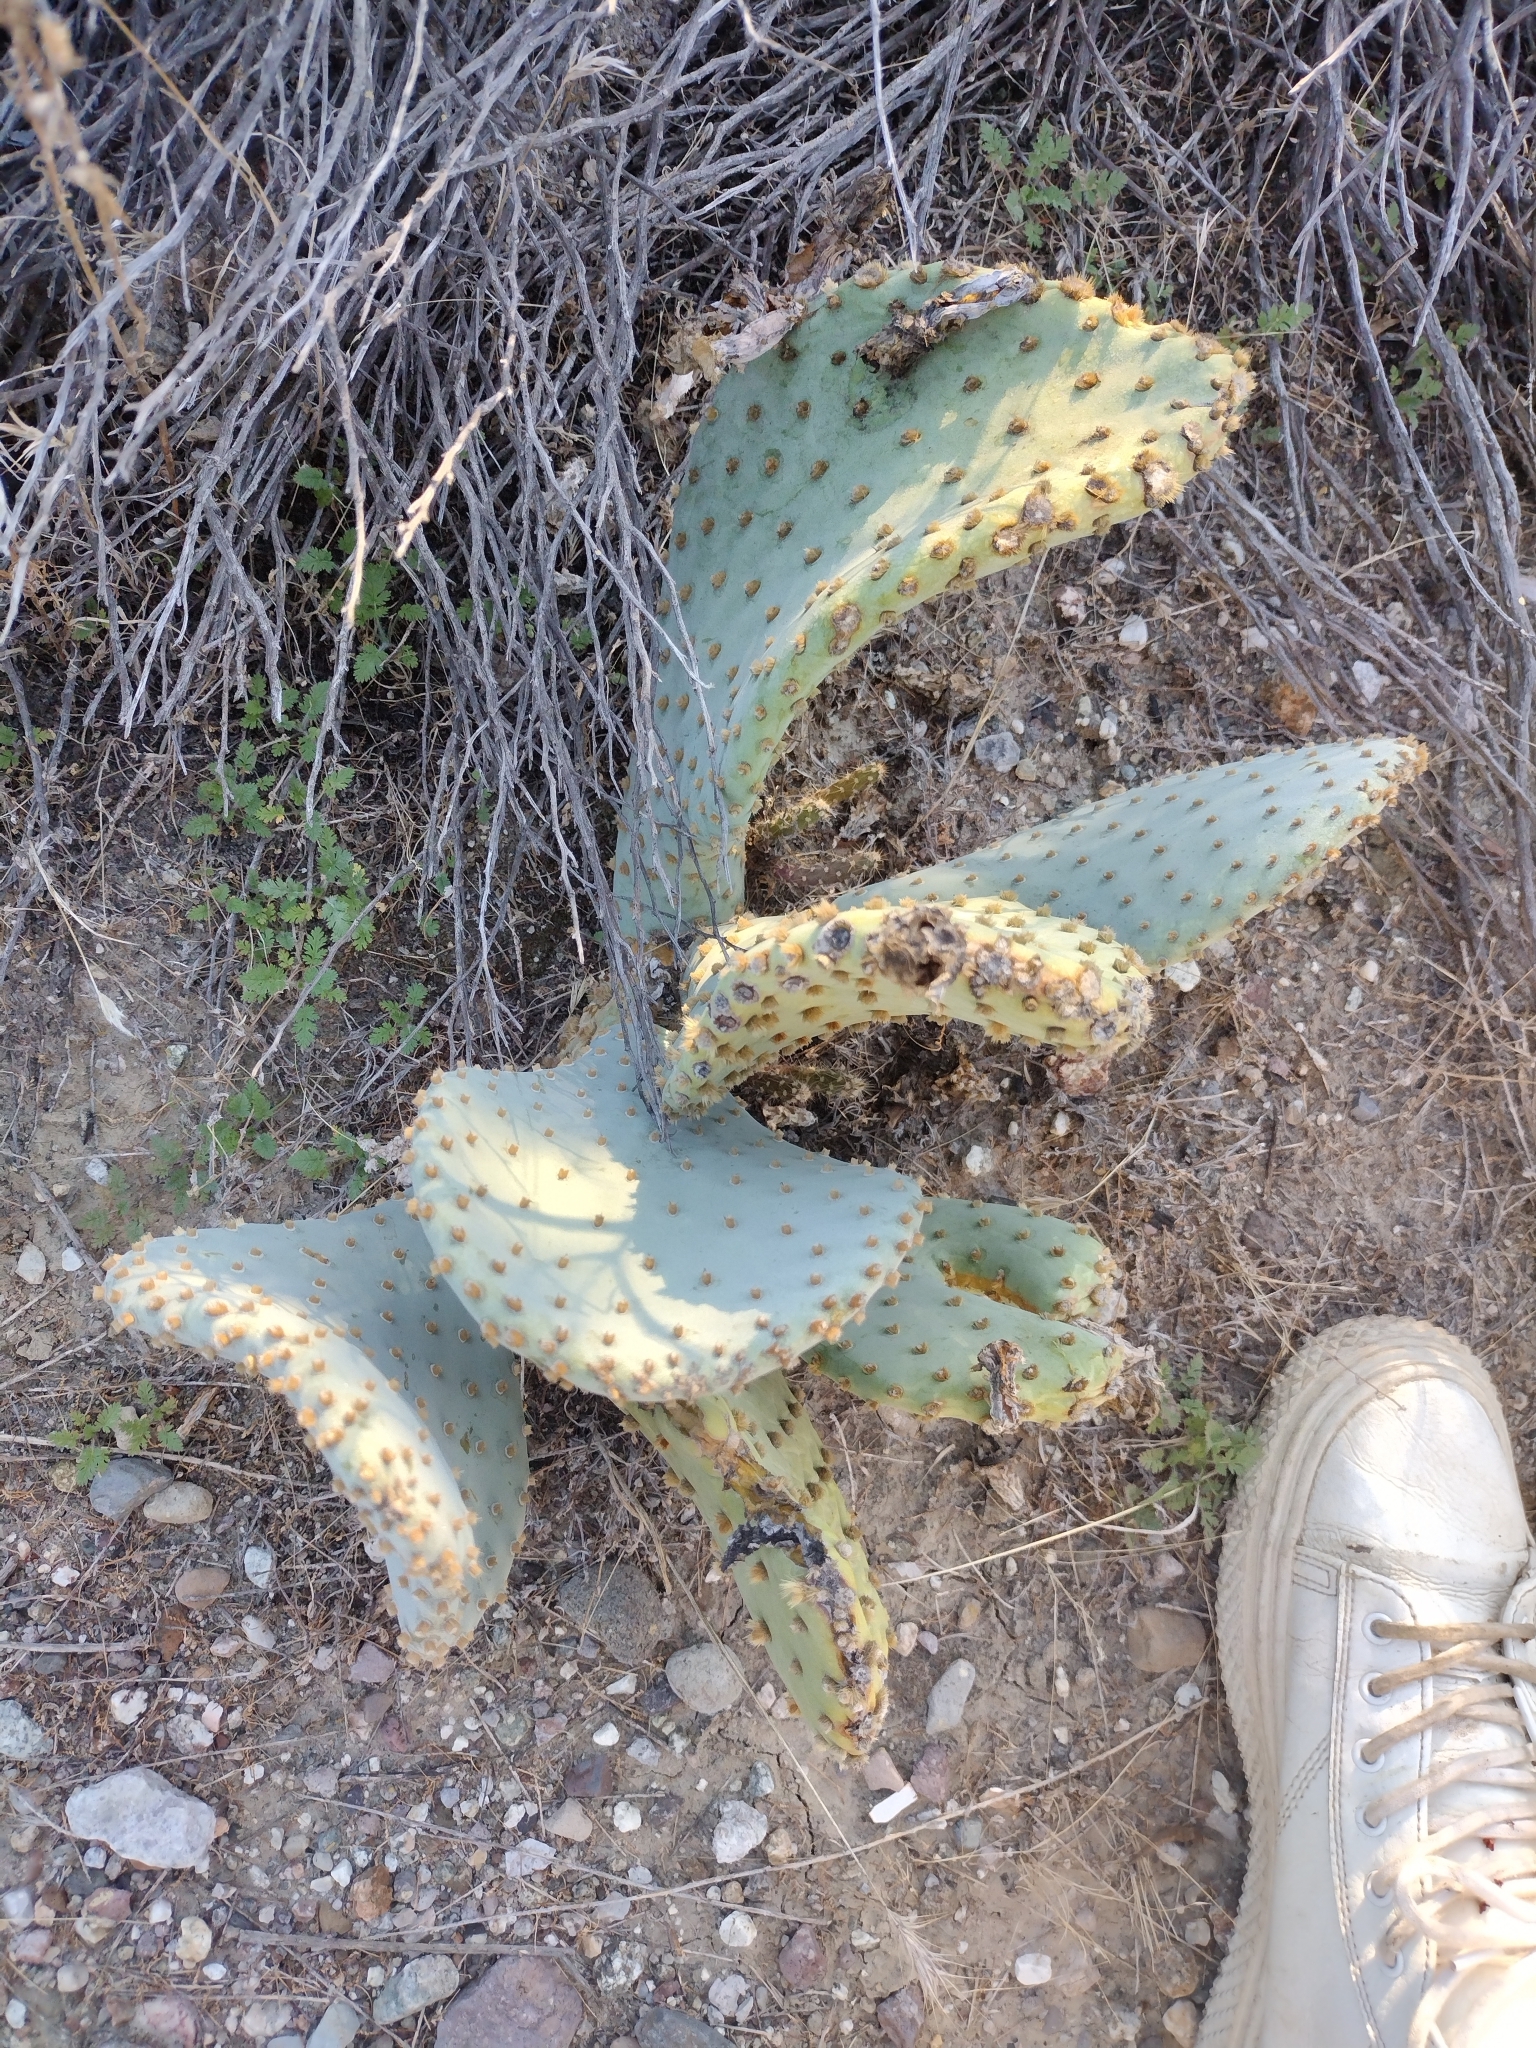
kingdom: Plantae
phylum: Tracheophyta
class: Magnoliopsida
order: Caryophyllales
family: Cactaceae
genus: Opuntia
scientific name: Opuntia basilaris
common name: Beavertail prickly-pear
